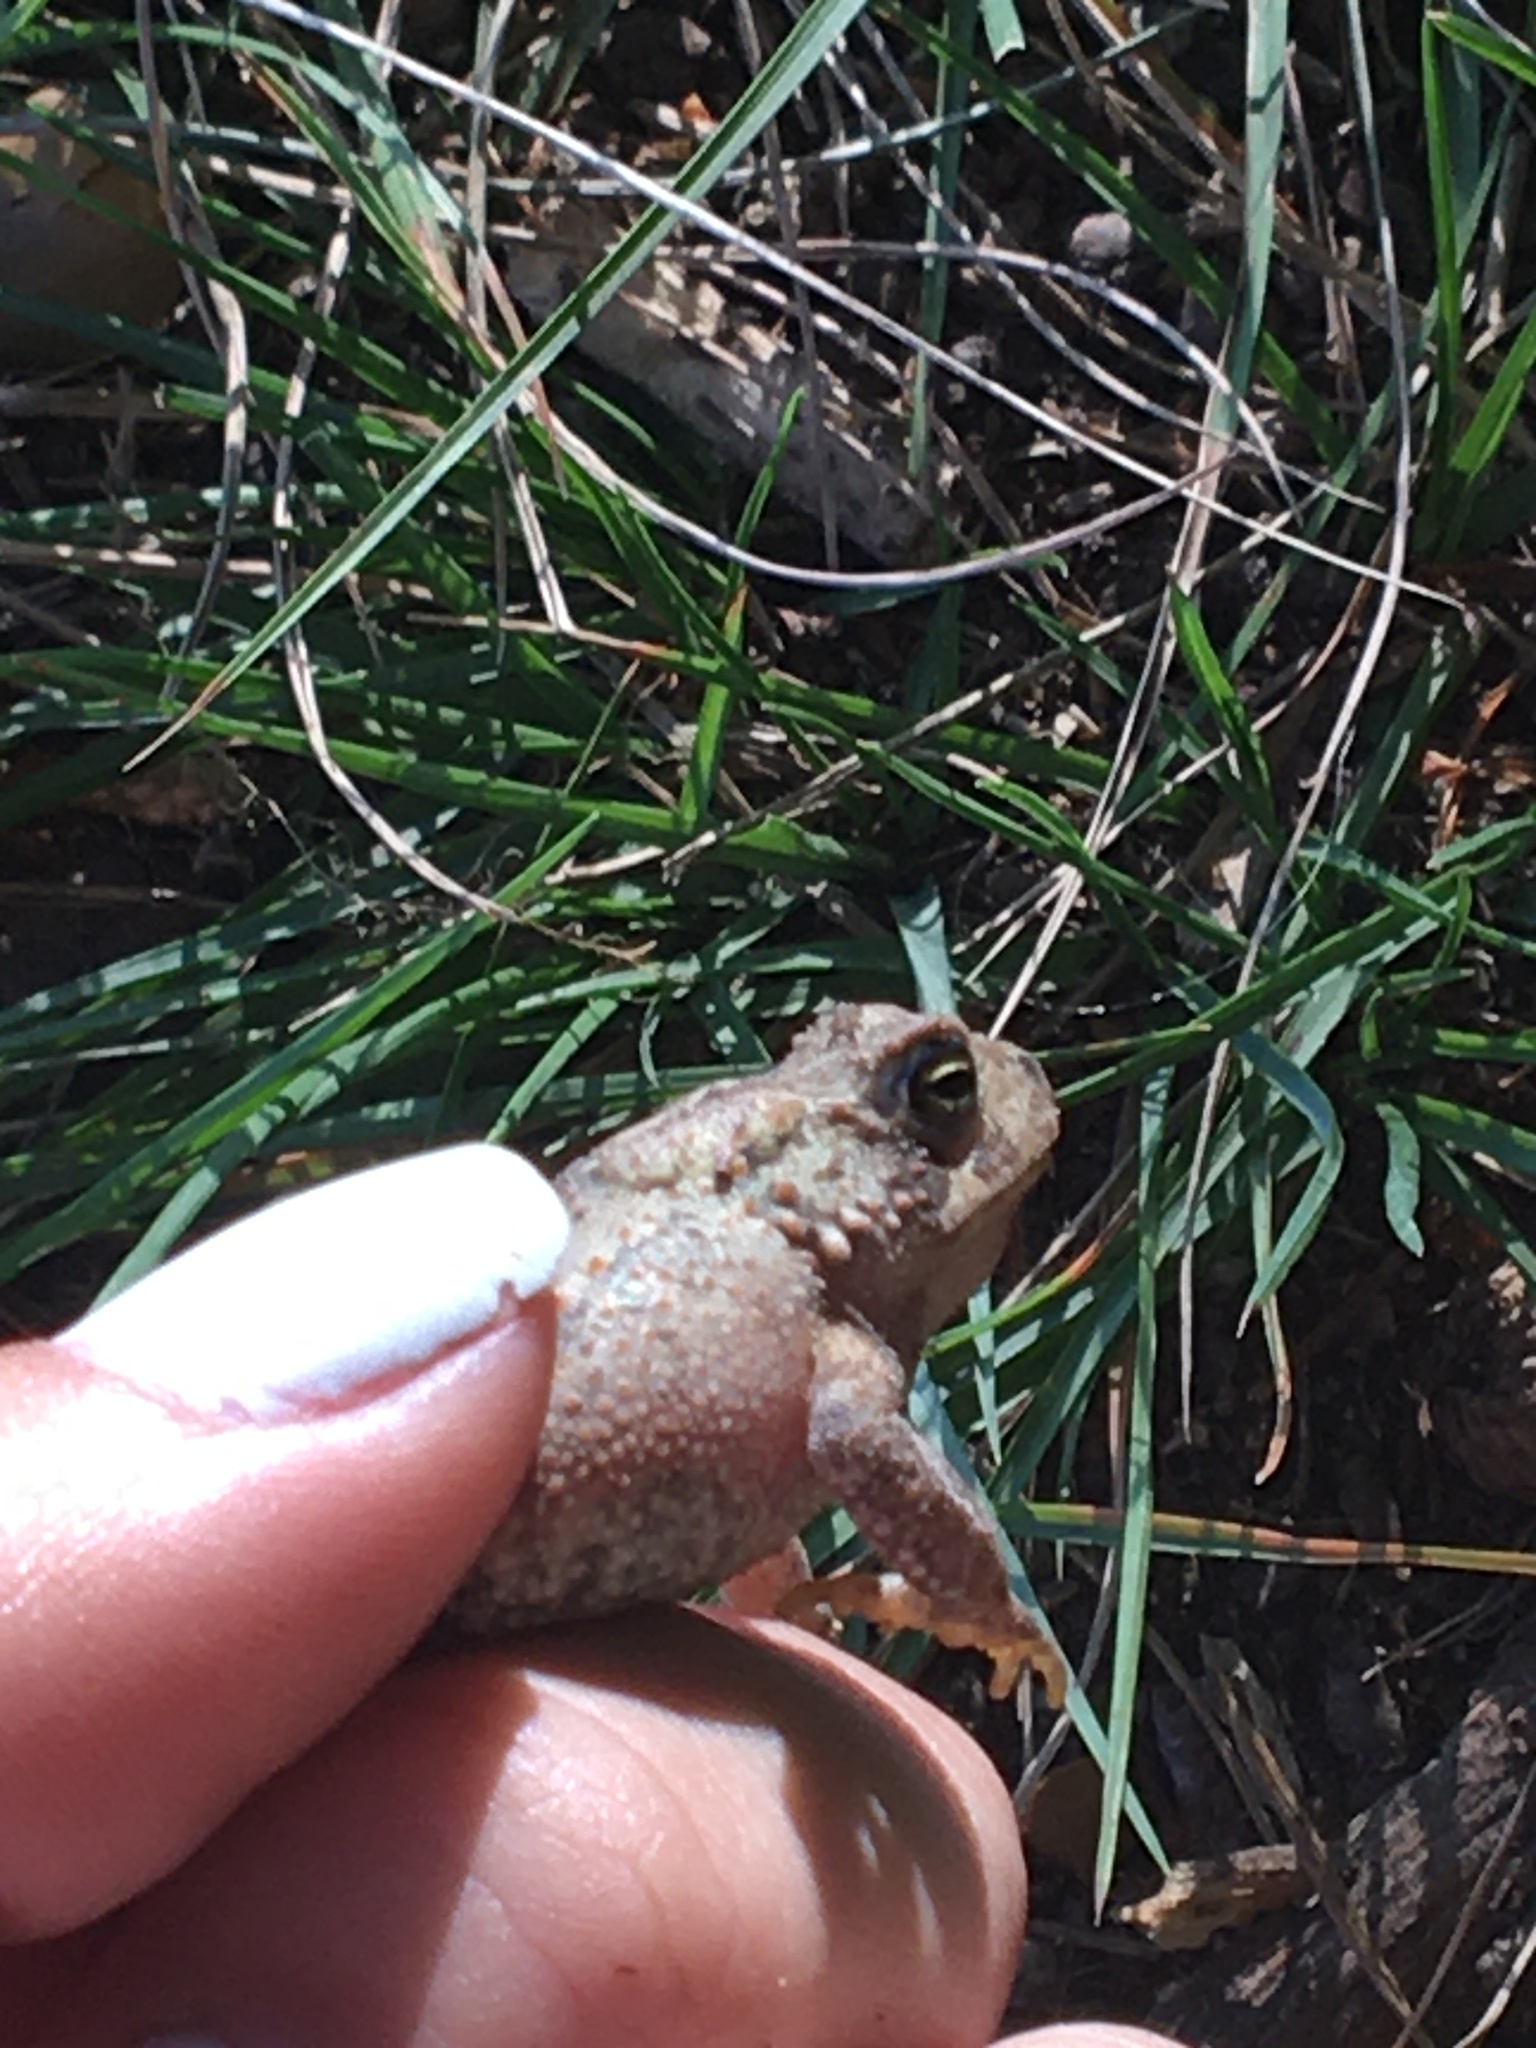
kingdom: Animalia
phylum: Chordata
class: Amphibia
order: Anura
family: Bufonidae
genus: Anaxyrus
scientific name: Anaxyrus americanus
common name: American toad
